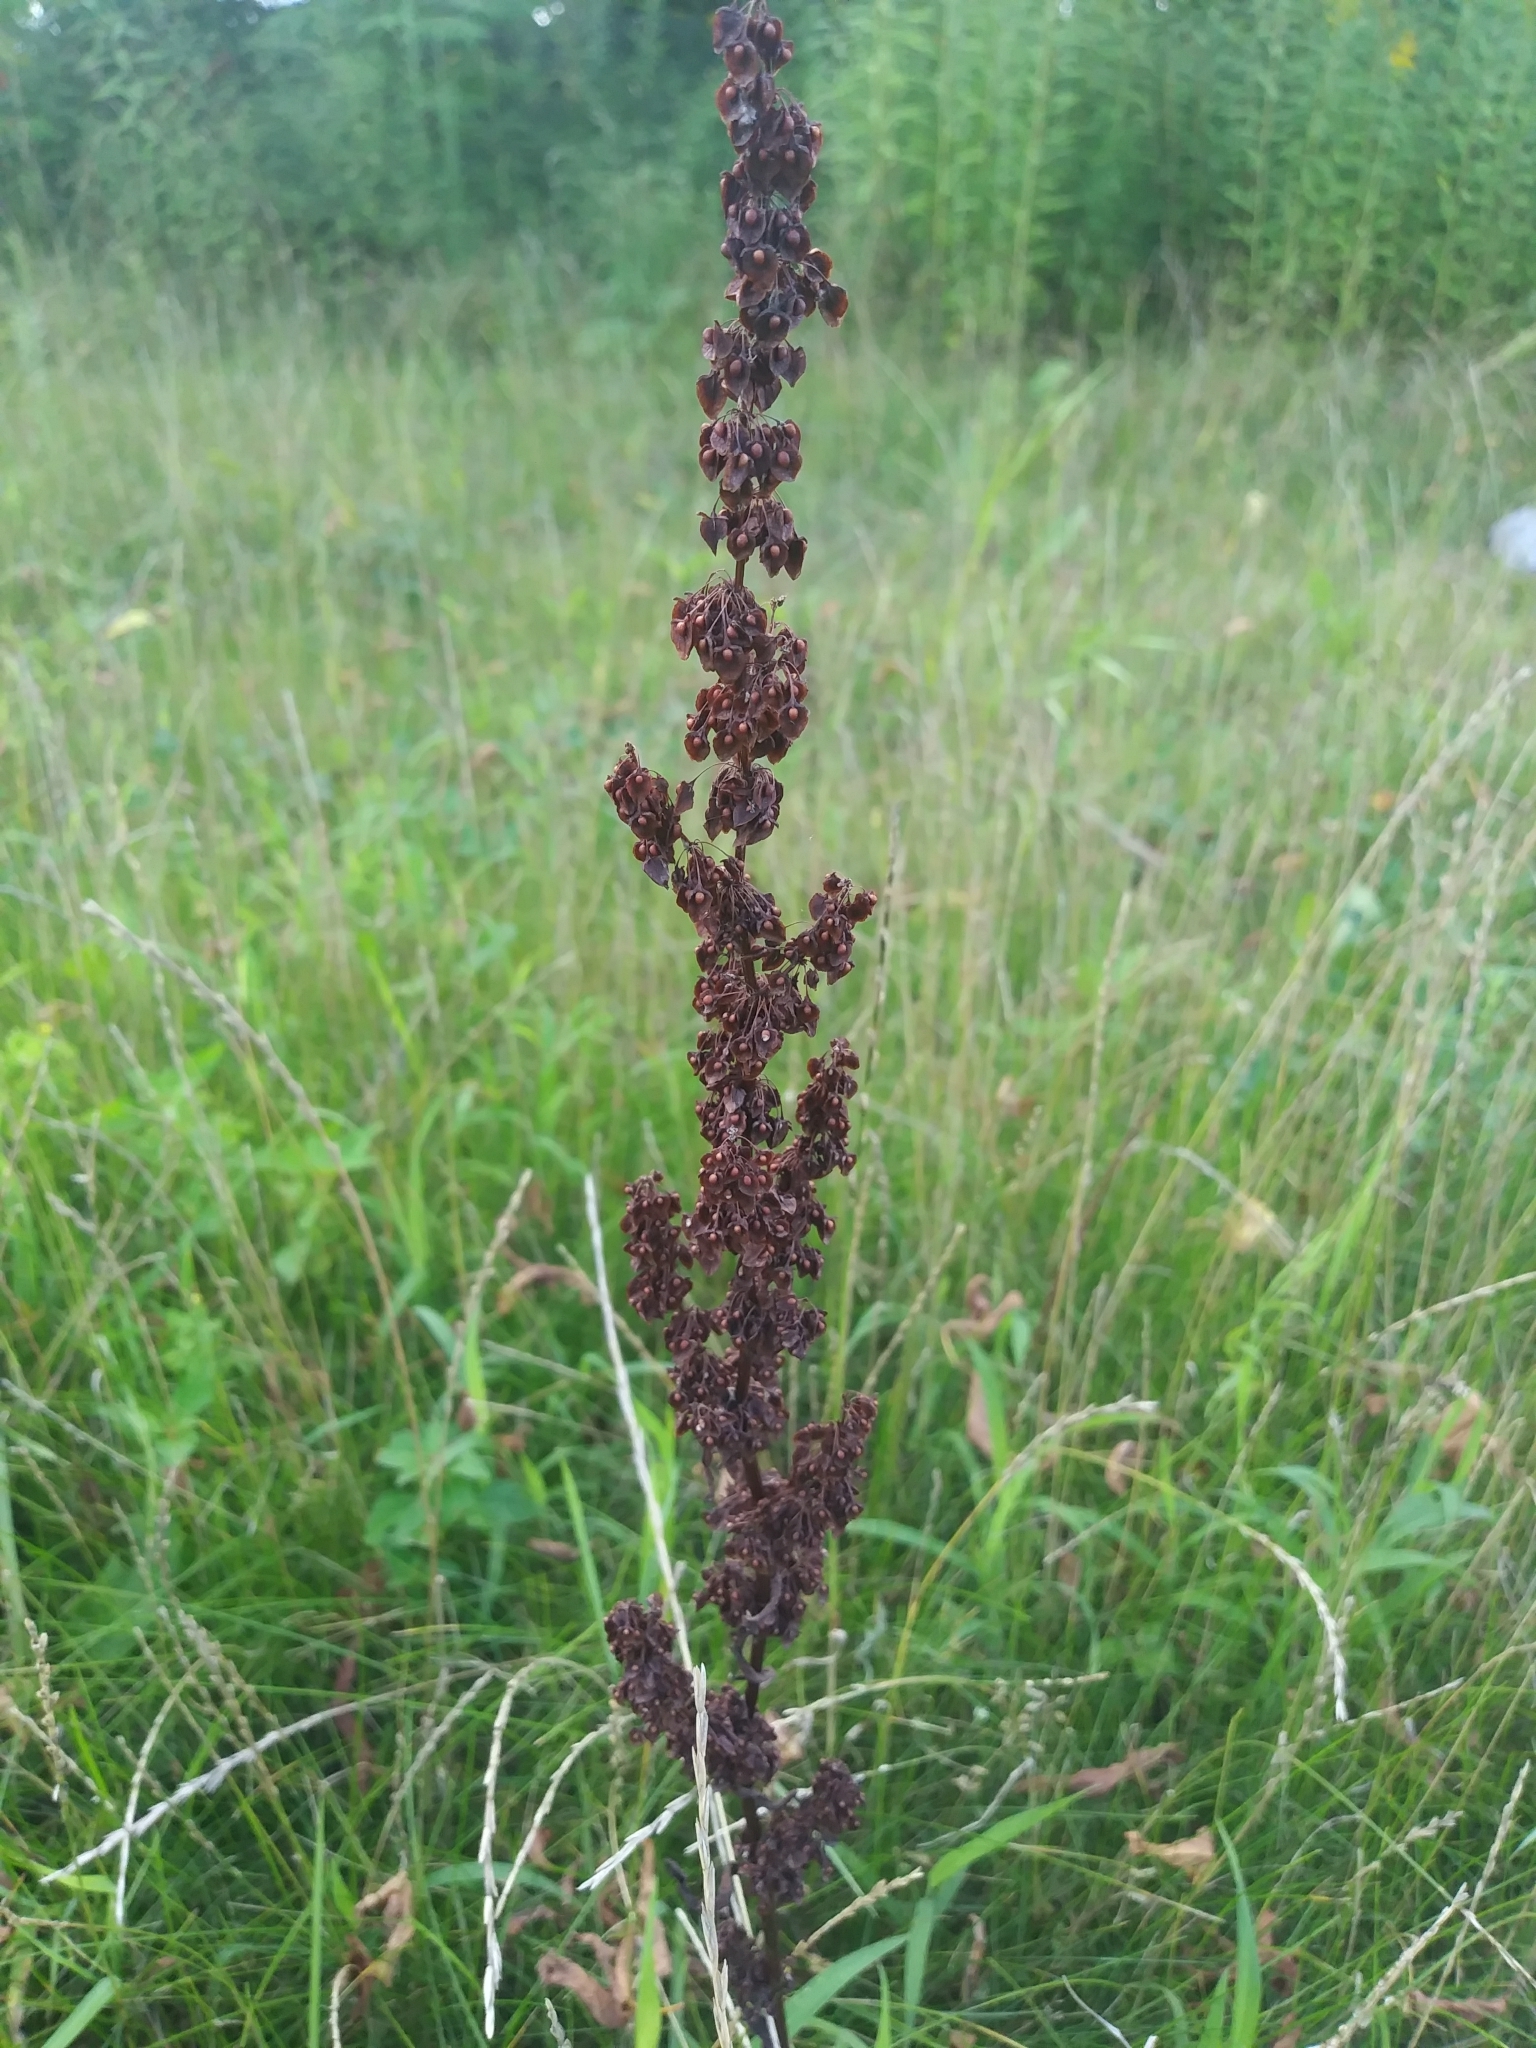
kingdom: Plantae
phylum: Tracheophyta
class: Magnoliopsida
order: Caryophyllales
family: Polygonaceae
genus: Rumex
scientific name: Rumex crispus
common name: Curled dock
